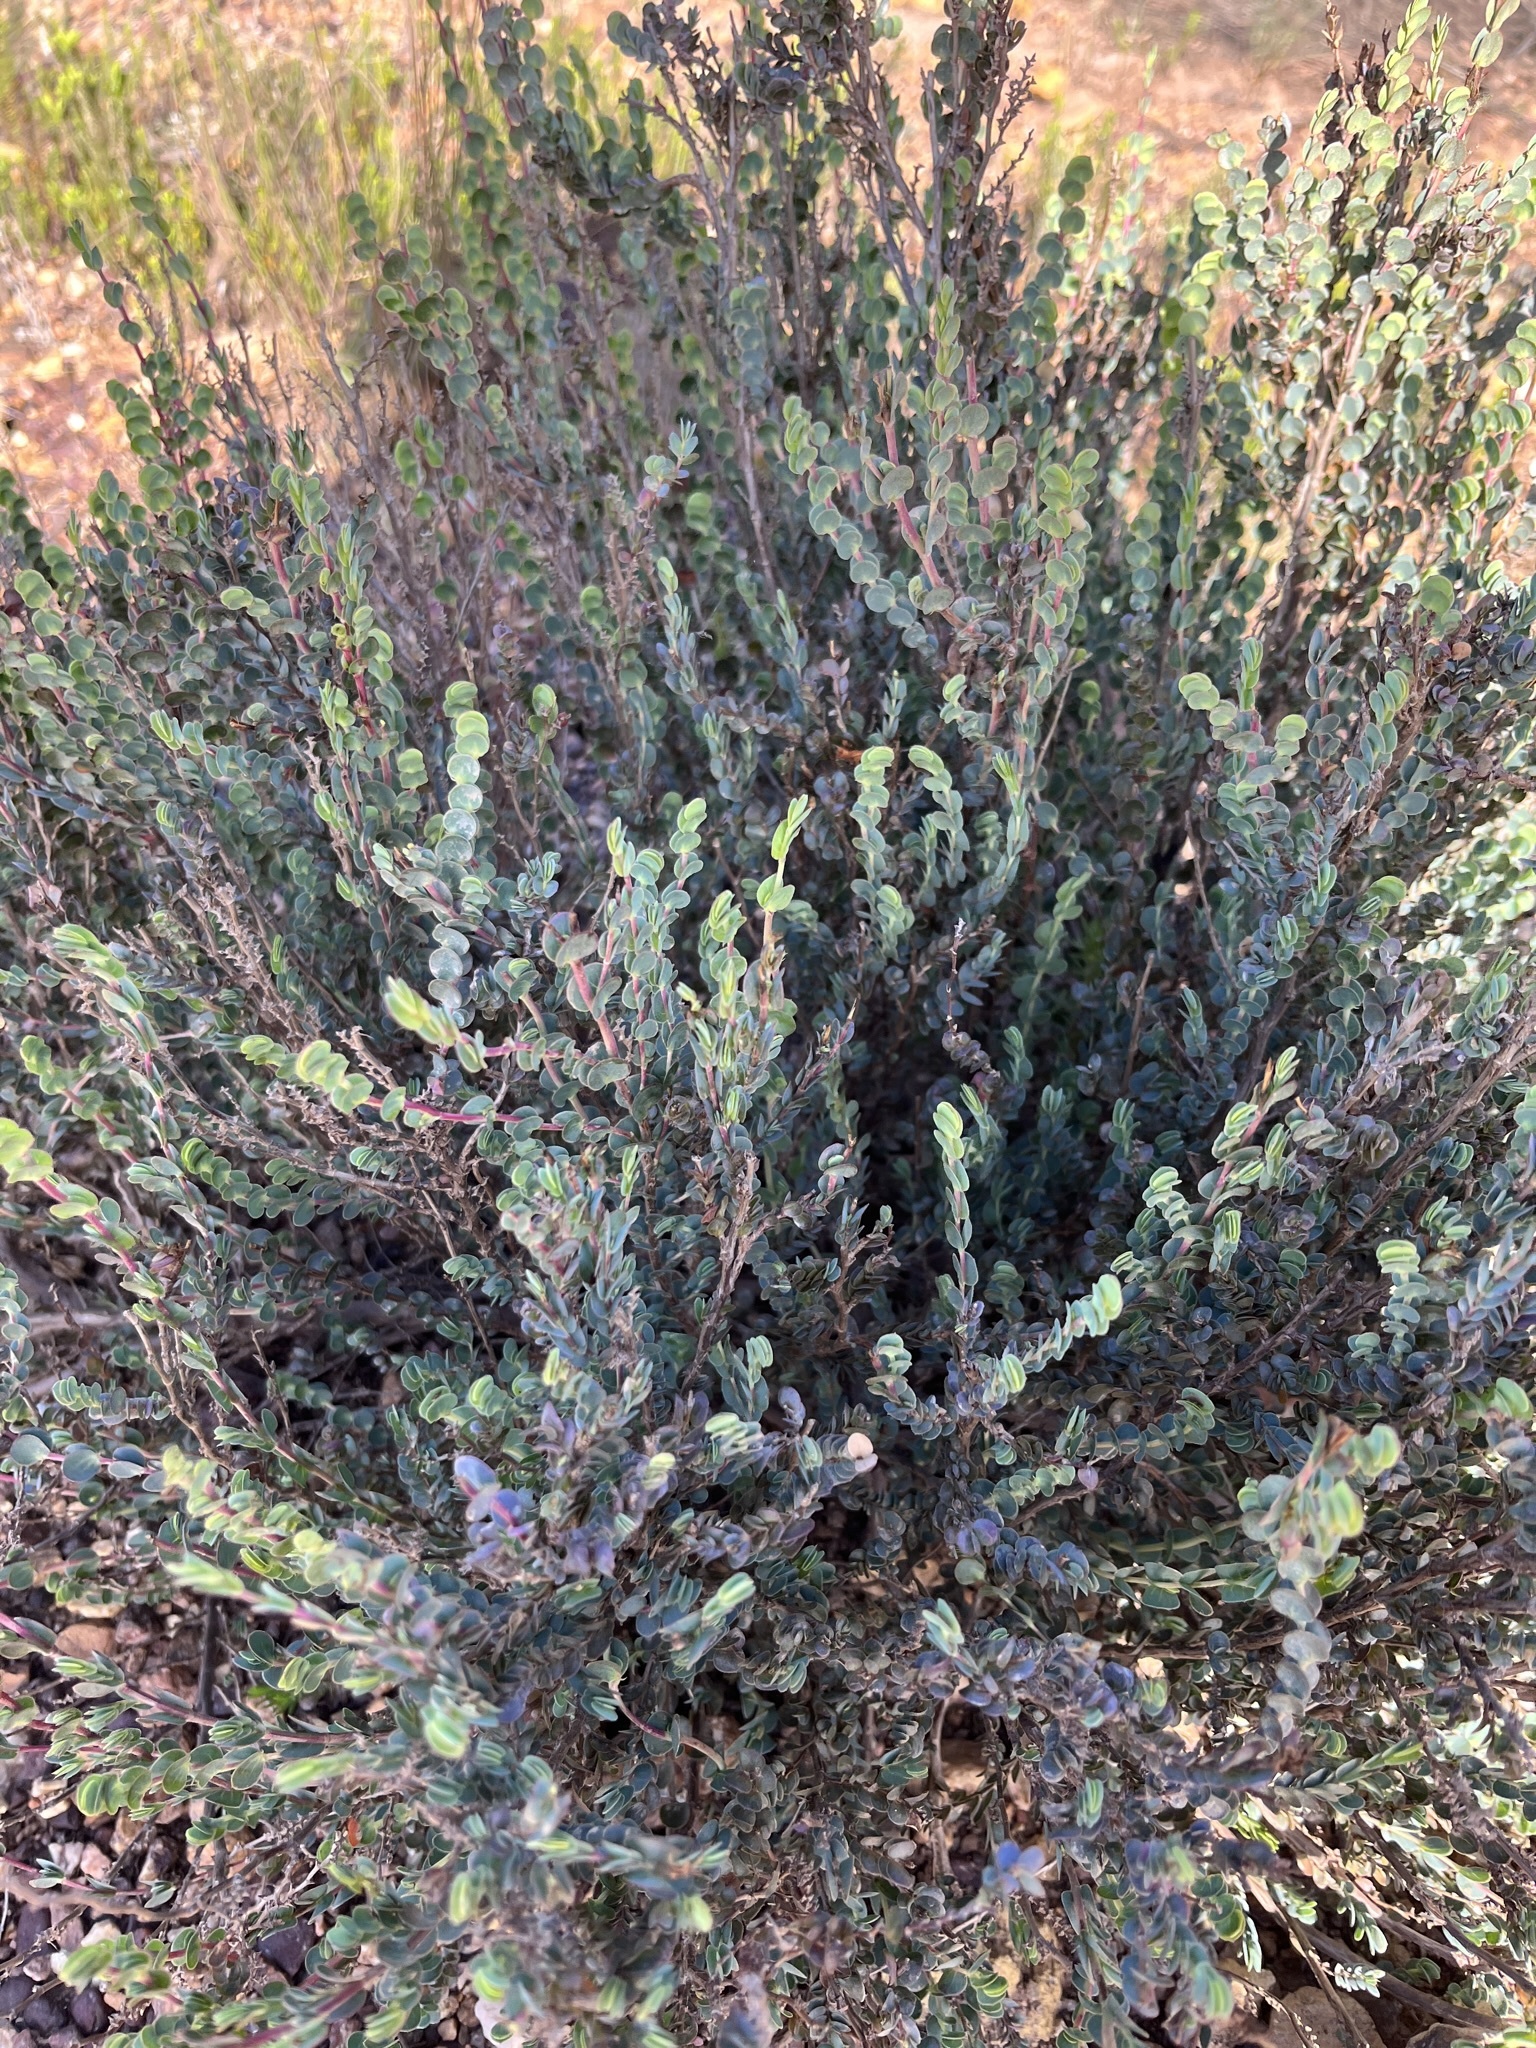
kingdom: Plantae
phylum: Tracheophyta
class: Magnoliopsida
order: Rosales
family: Rosaceae
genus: Cliffortia
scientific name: Cliffortia phyllanthoides
